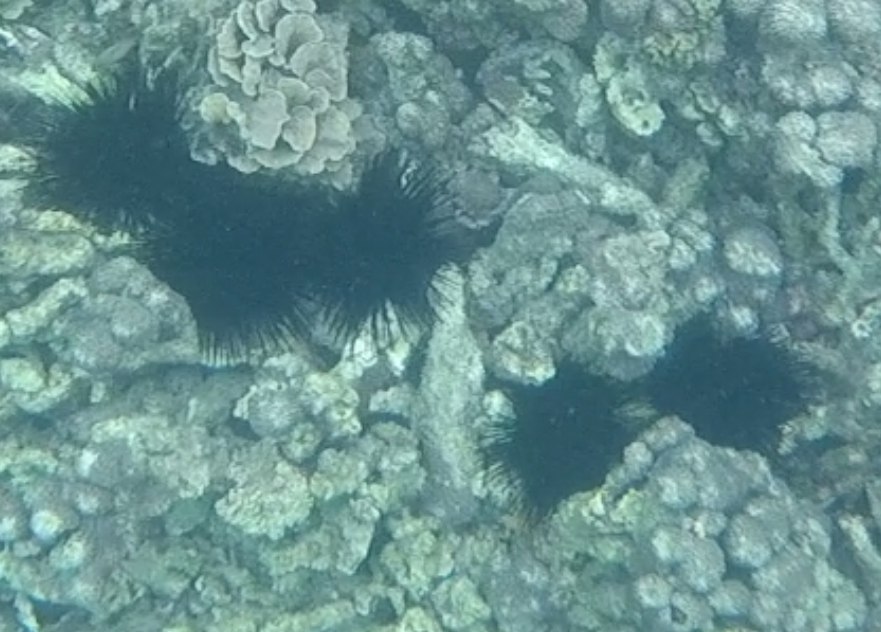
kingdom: Animalia
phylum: Echinodermata
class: Echinoidea
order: Diadematoida
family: Diadematidae
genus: Echinothrix
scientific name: Echinothrix calamaris
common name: Banded sea urchin
